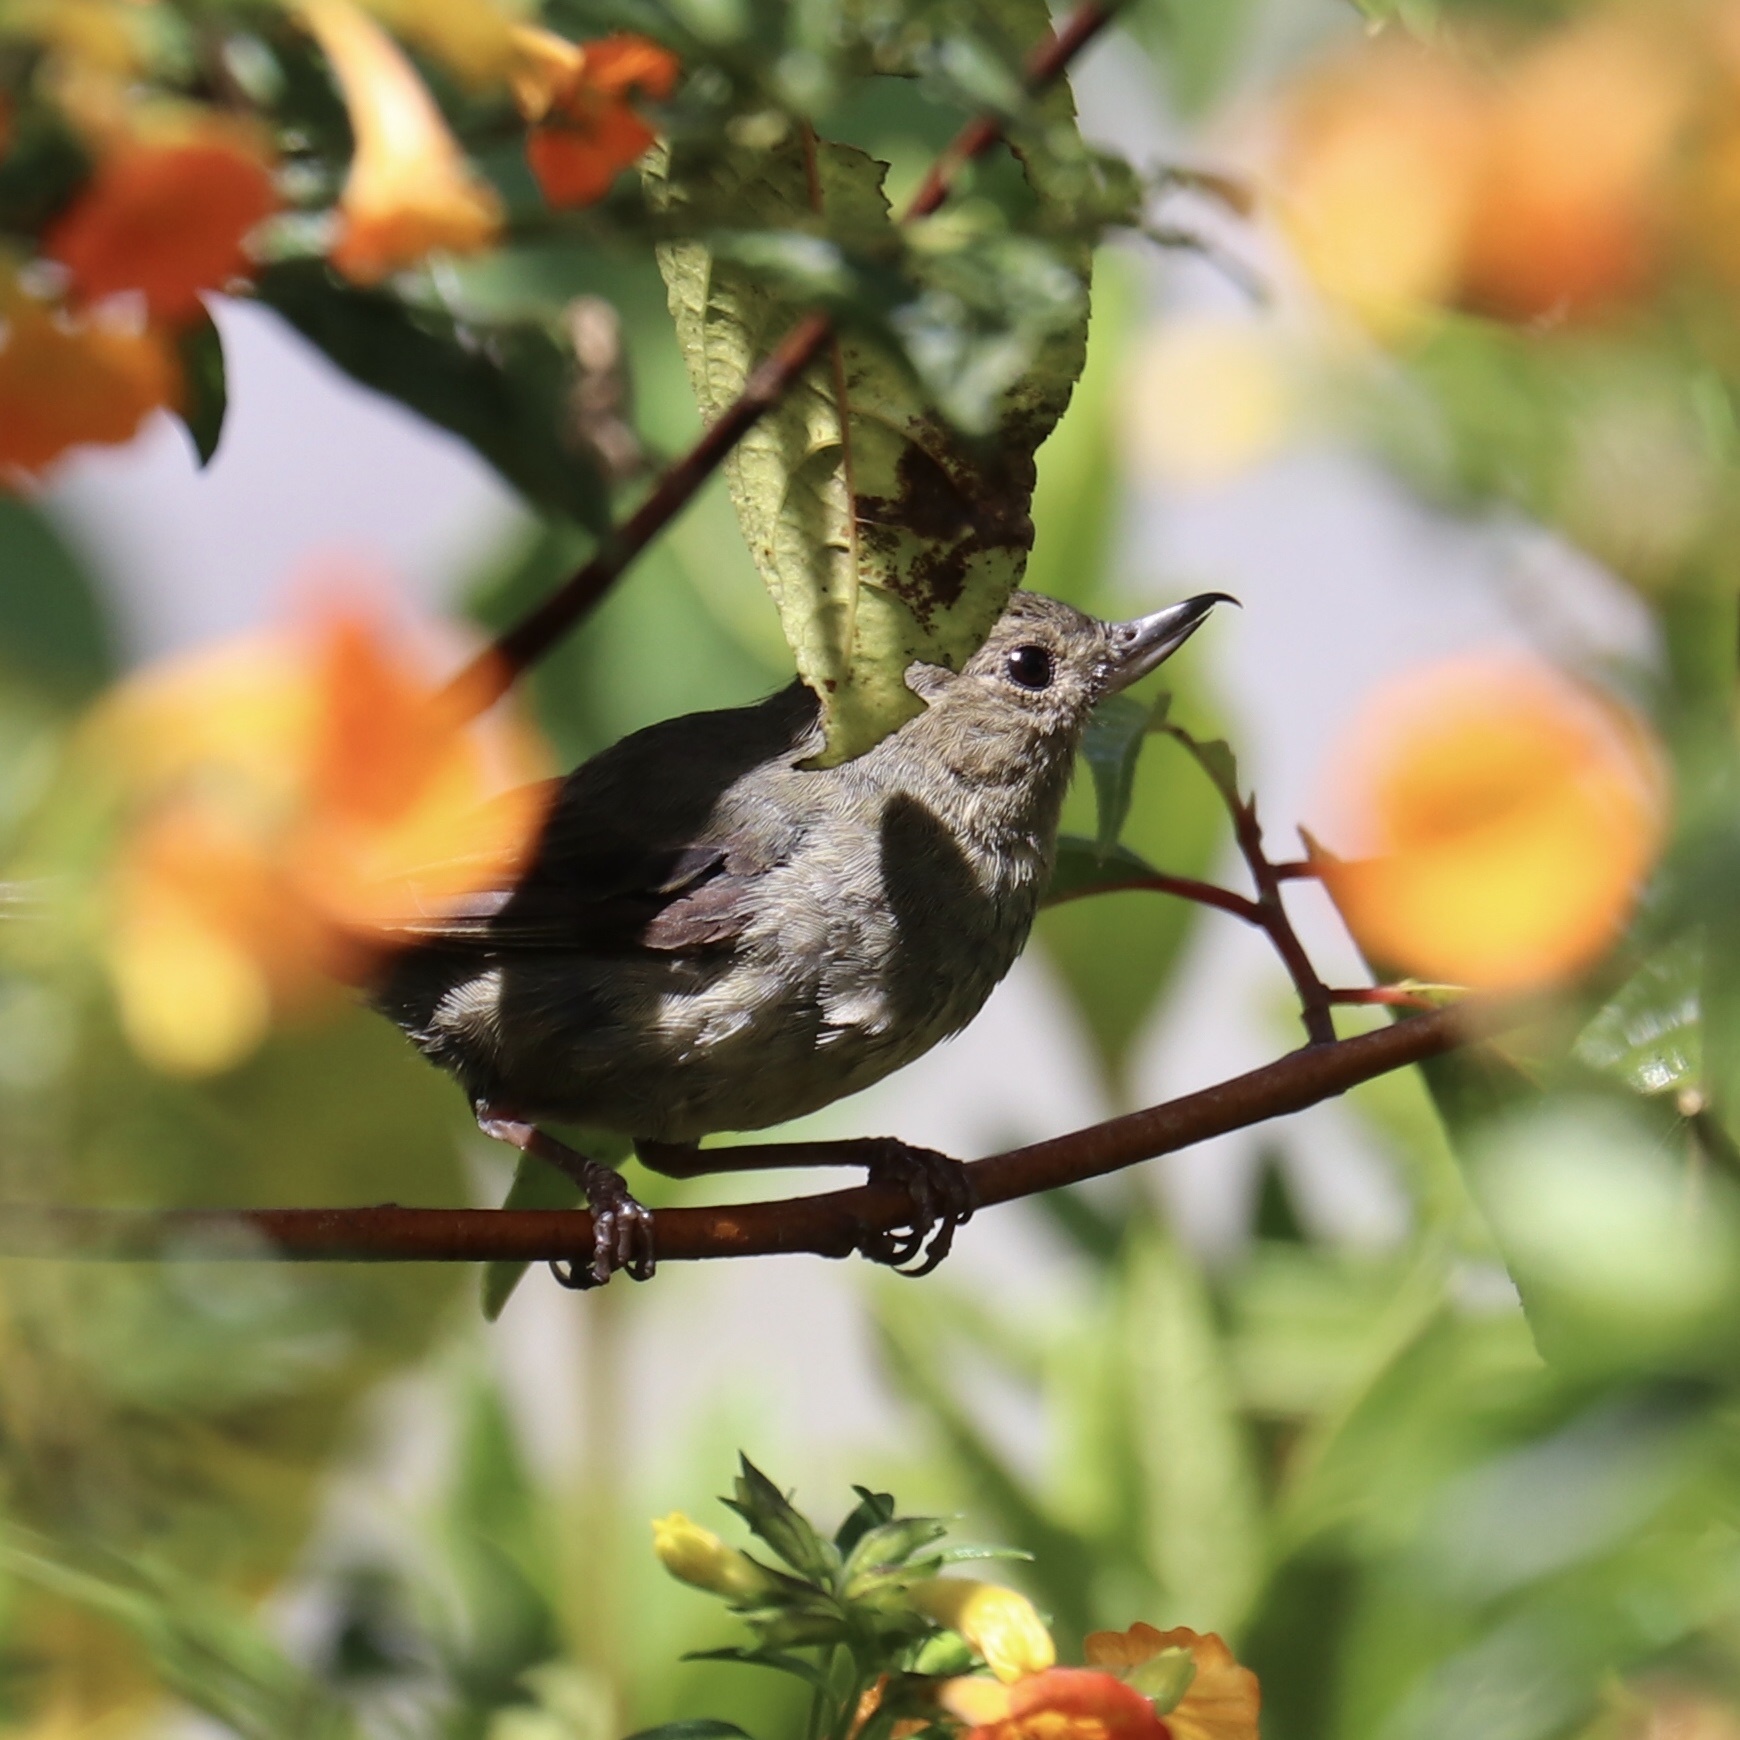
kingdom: Animalia
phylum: Chordata
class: Aves
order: Passeriformes
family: Thraupidae
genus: Diglossa
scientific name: Diglossa plumbea
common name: Slaty flowerpiercer
